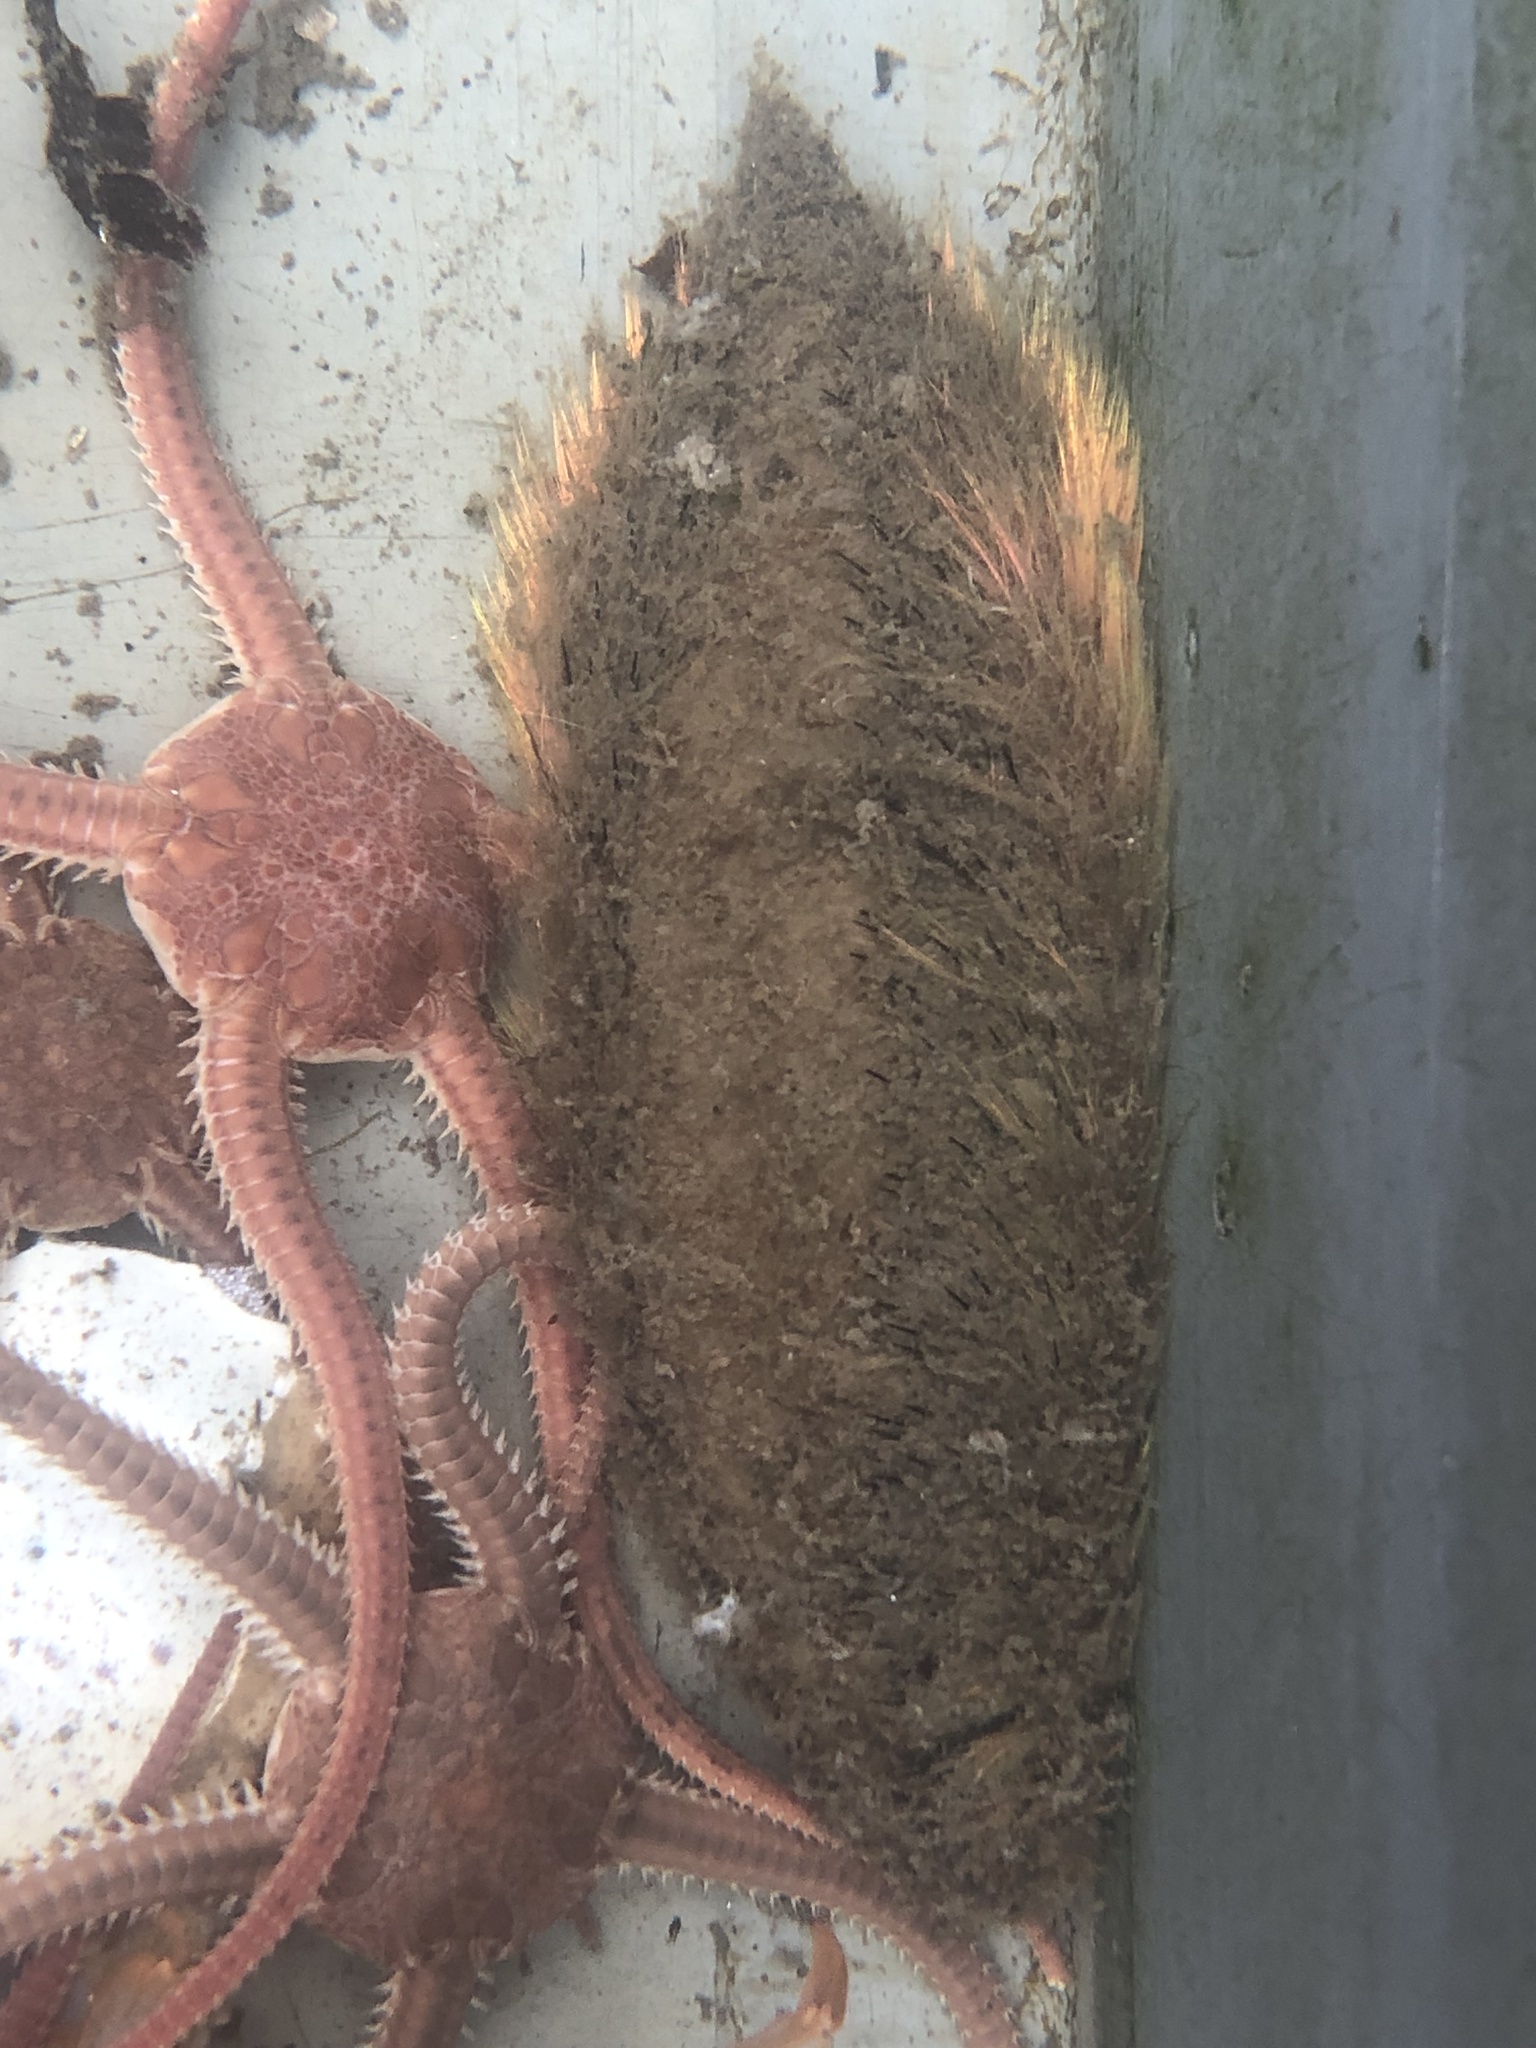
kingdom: Animalia
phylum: Annelida
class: Polychaeta
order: Phyllodocida
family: Aphroditidae
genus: Aphrodita
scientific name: Aphrodita aculeata
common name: Sea mouse
